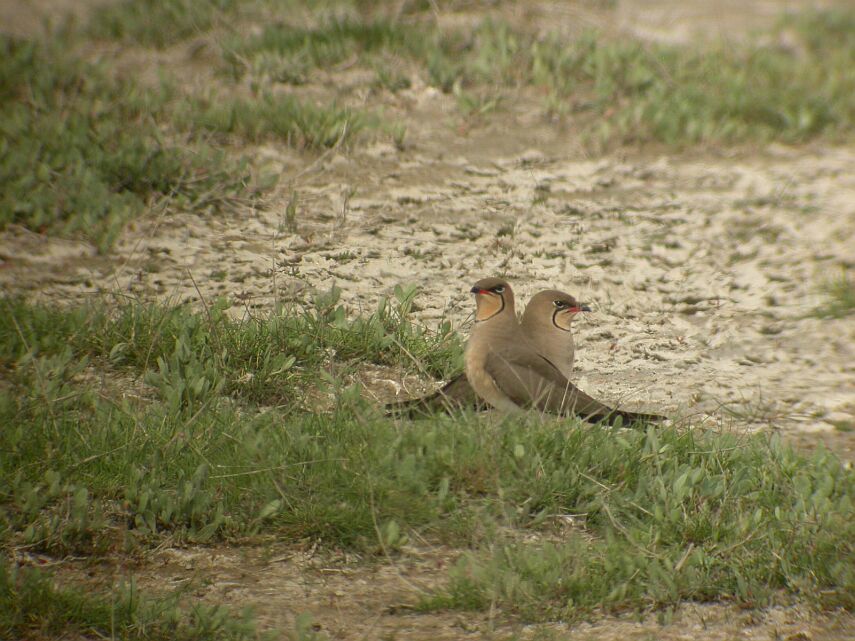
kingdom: Animalia
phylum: Chordata
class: Aves
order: Charadriiformes
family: Glareolidae
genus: Glareola
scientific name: Glareola pratincola
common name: Collared pratincole
